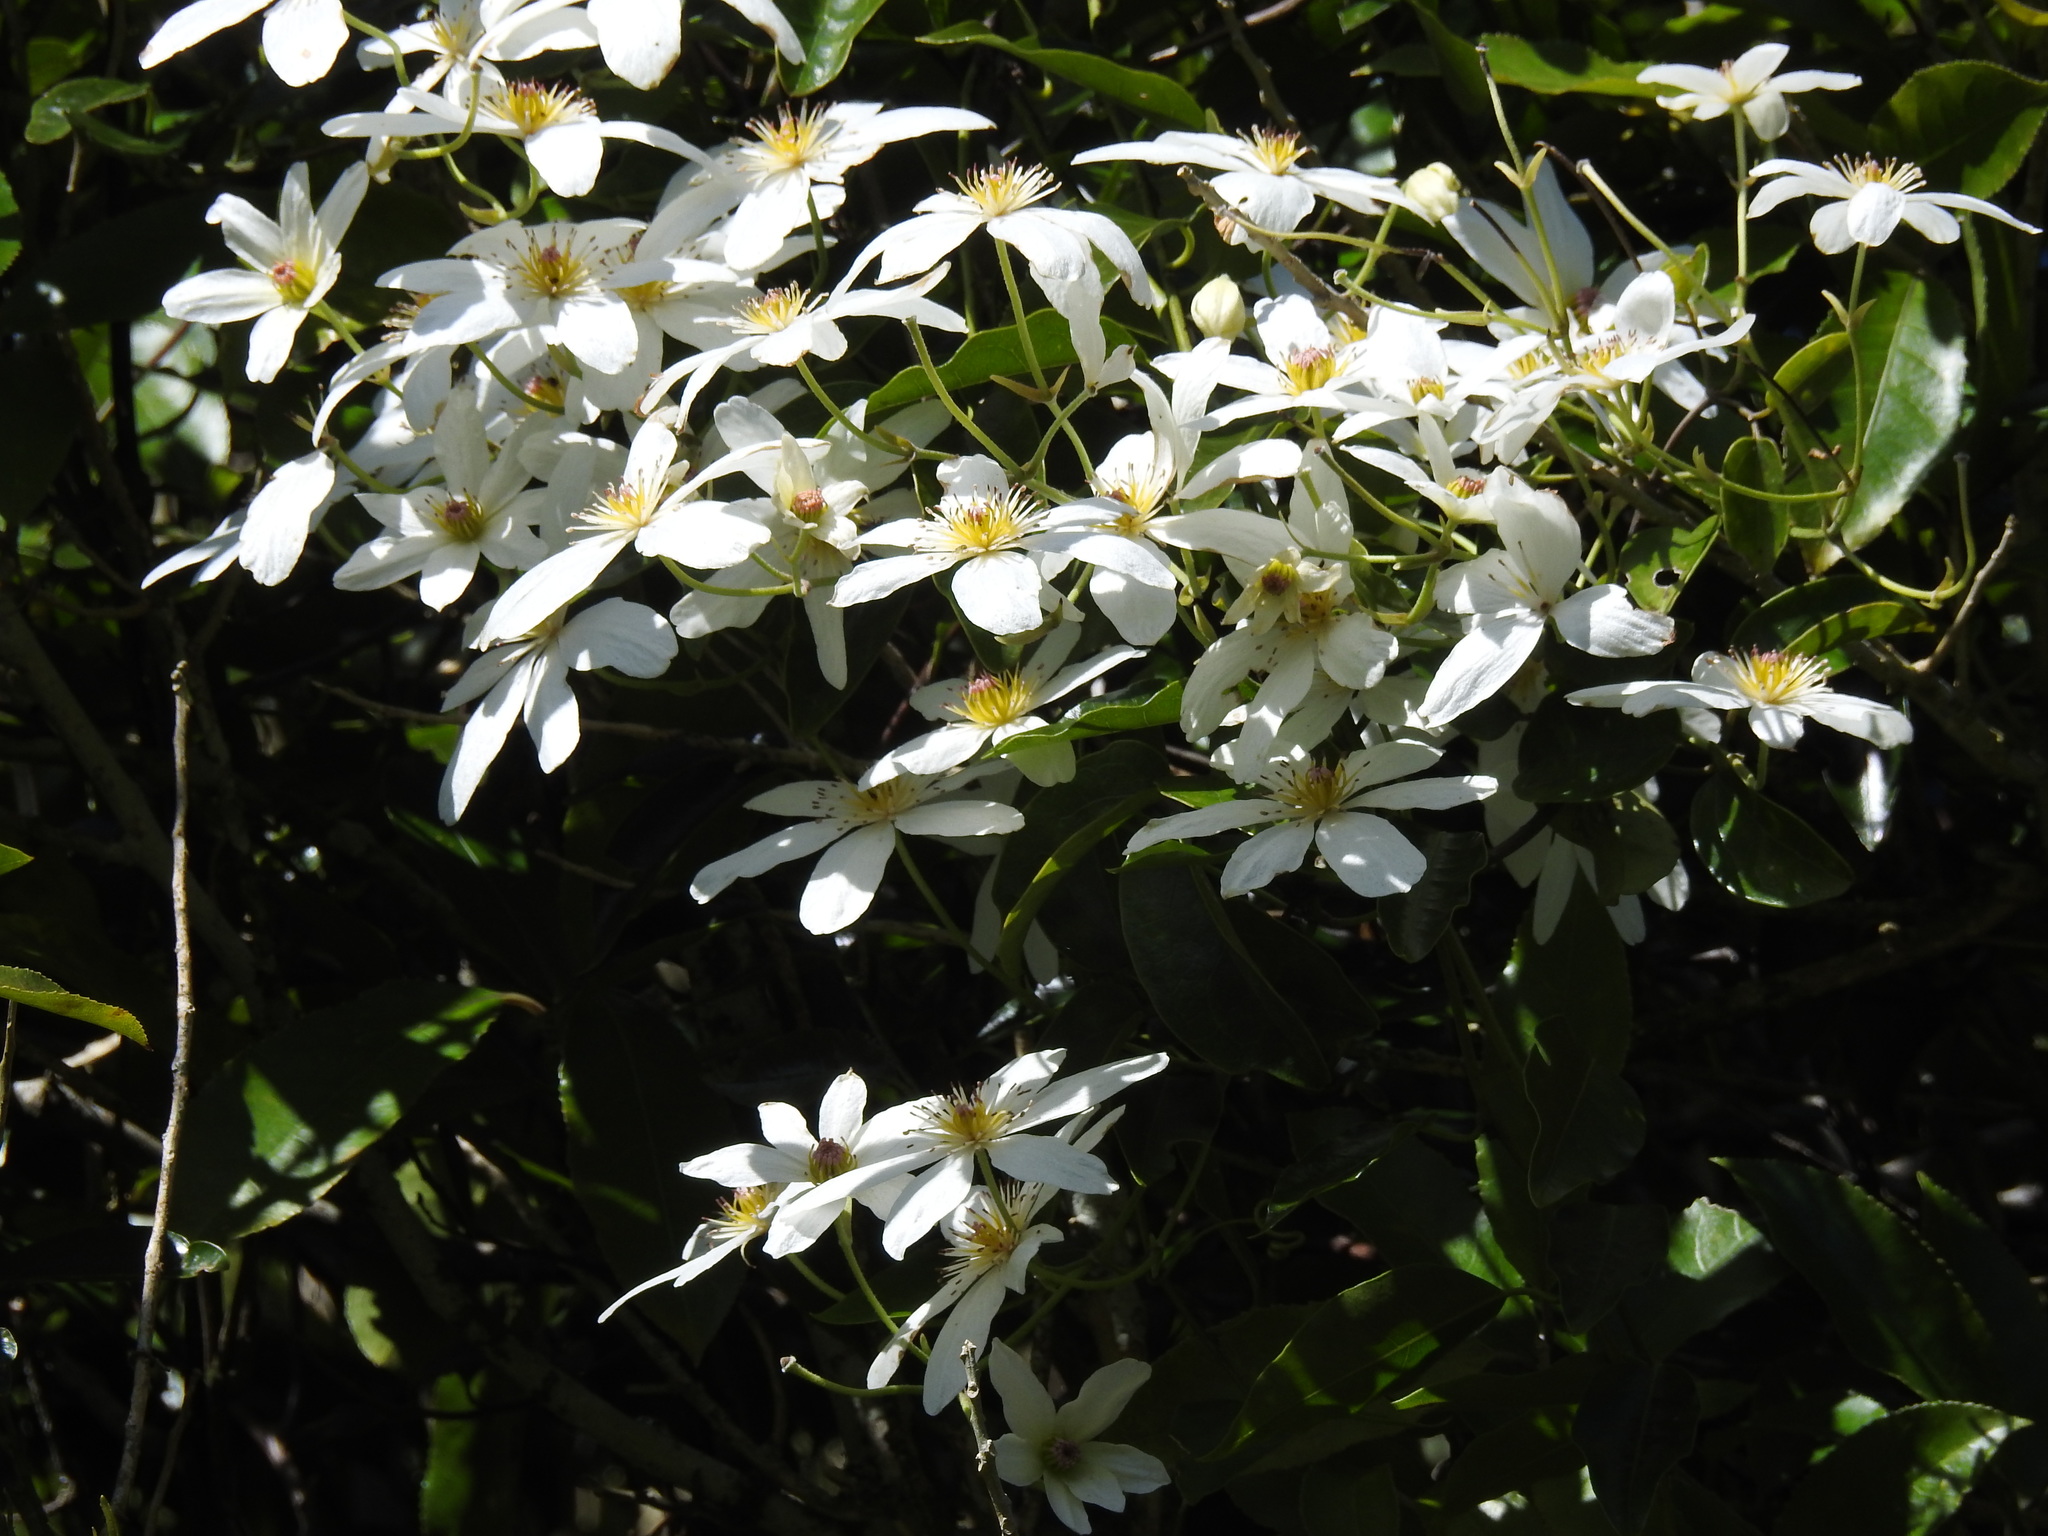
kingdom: Plantae
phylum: Tracheophyta
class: Magnoliopsida
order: Ranunculales
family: Ranunculaceae
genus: Clematis
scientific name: Clematis paniculata
